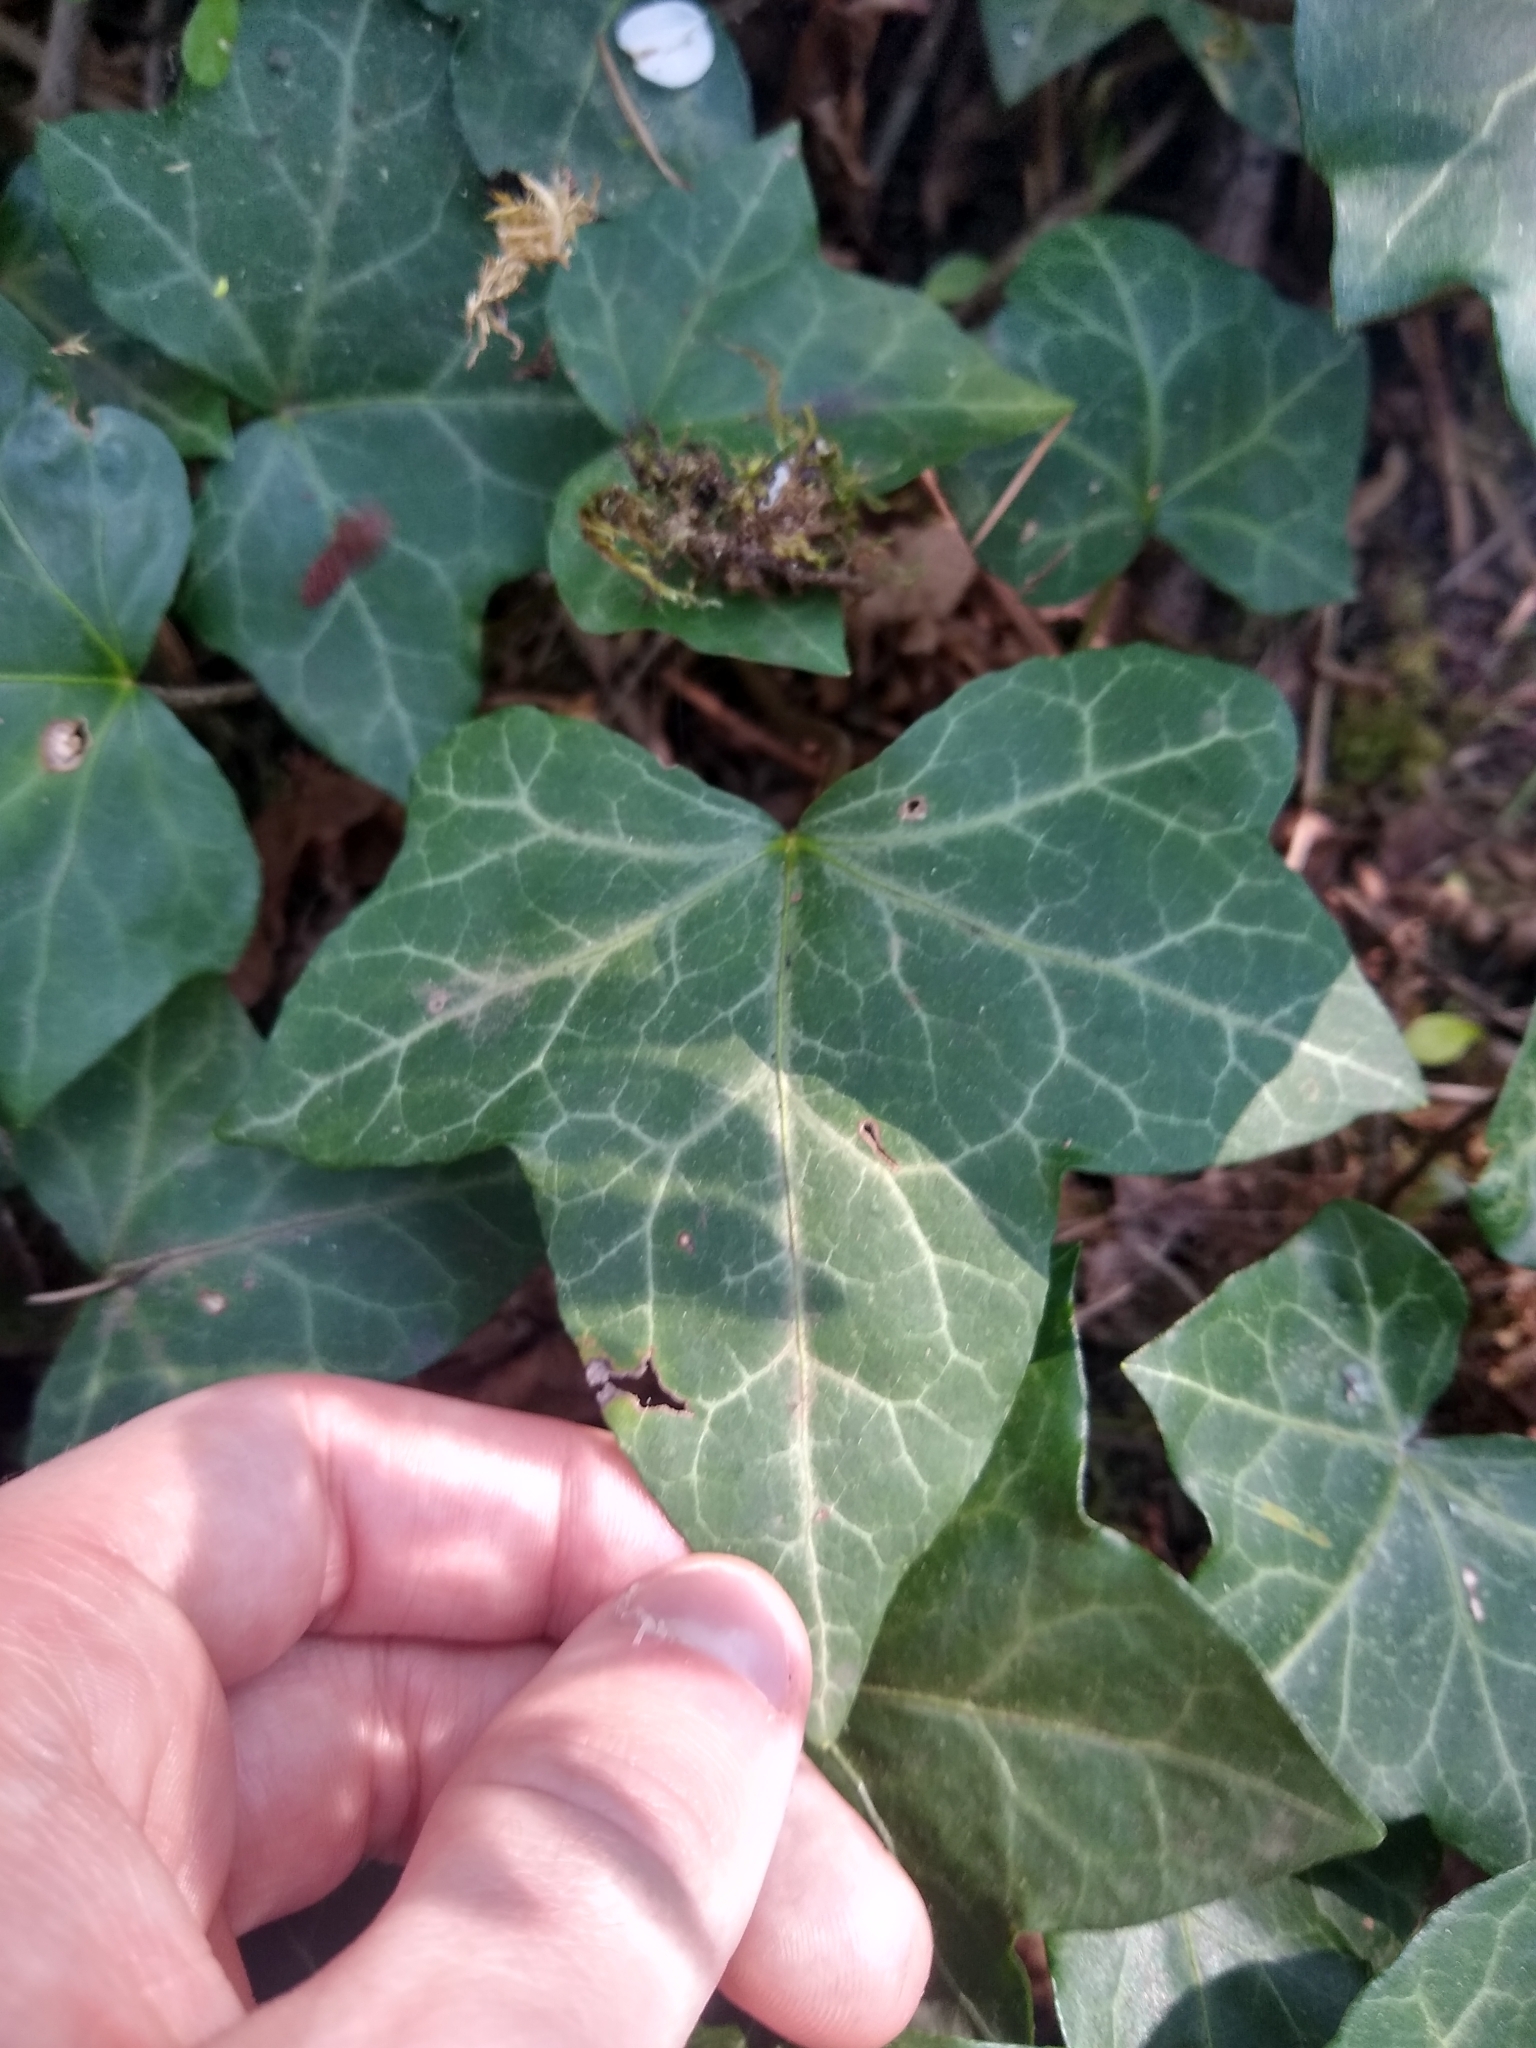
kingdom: Plantae
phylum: Tracheophyta
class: Magnoliopsida
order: Apiales
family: Araliaceae
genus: Hedera
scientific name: Hedera helix
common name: Ivy
